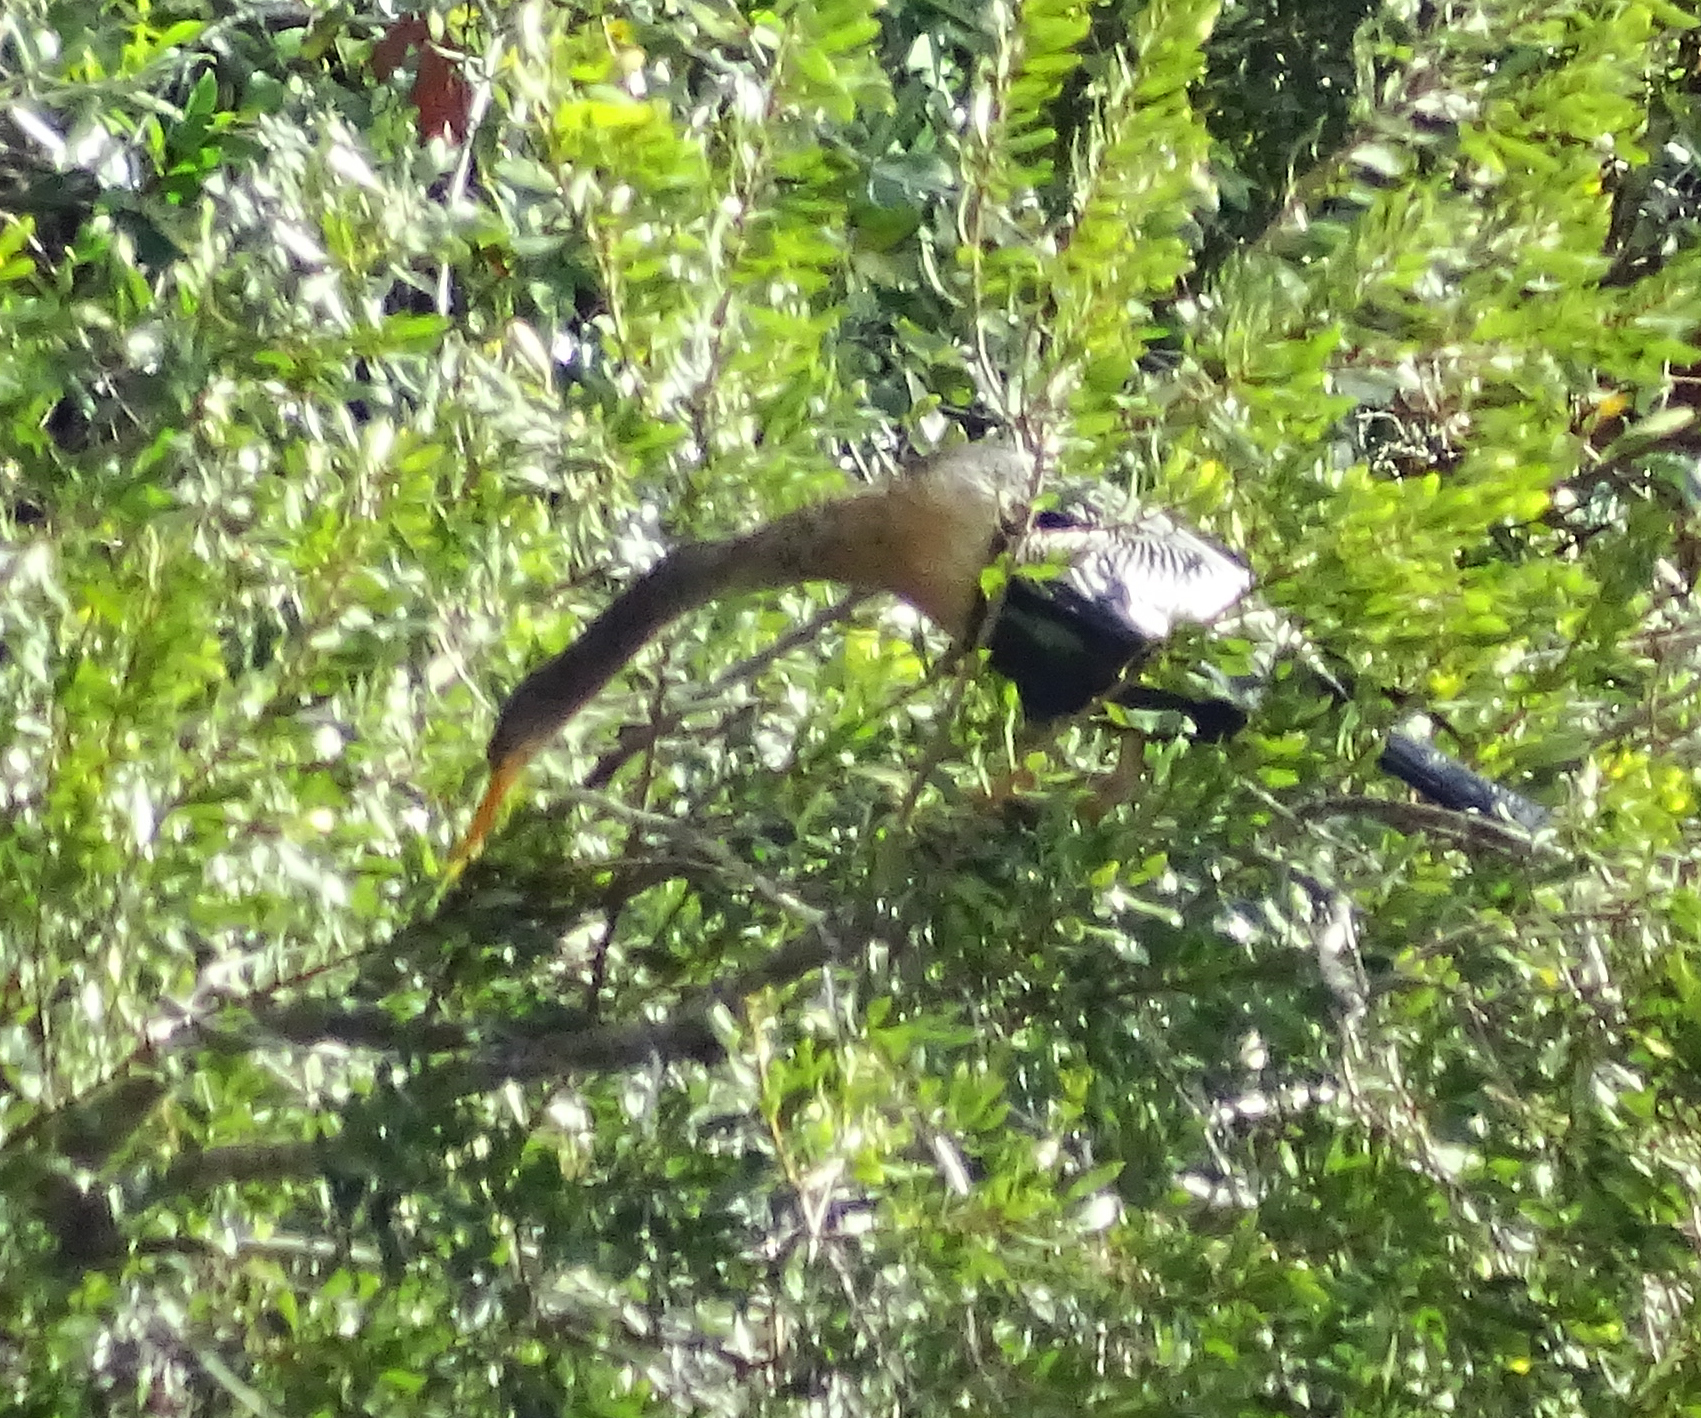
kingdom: Animalia
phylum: Chordata
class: Aves
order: Suliformes
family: Anhingidae
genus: Anhinga
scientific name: Anhinga anhinga
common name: Anhinga
